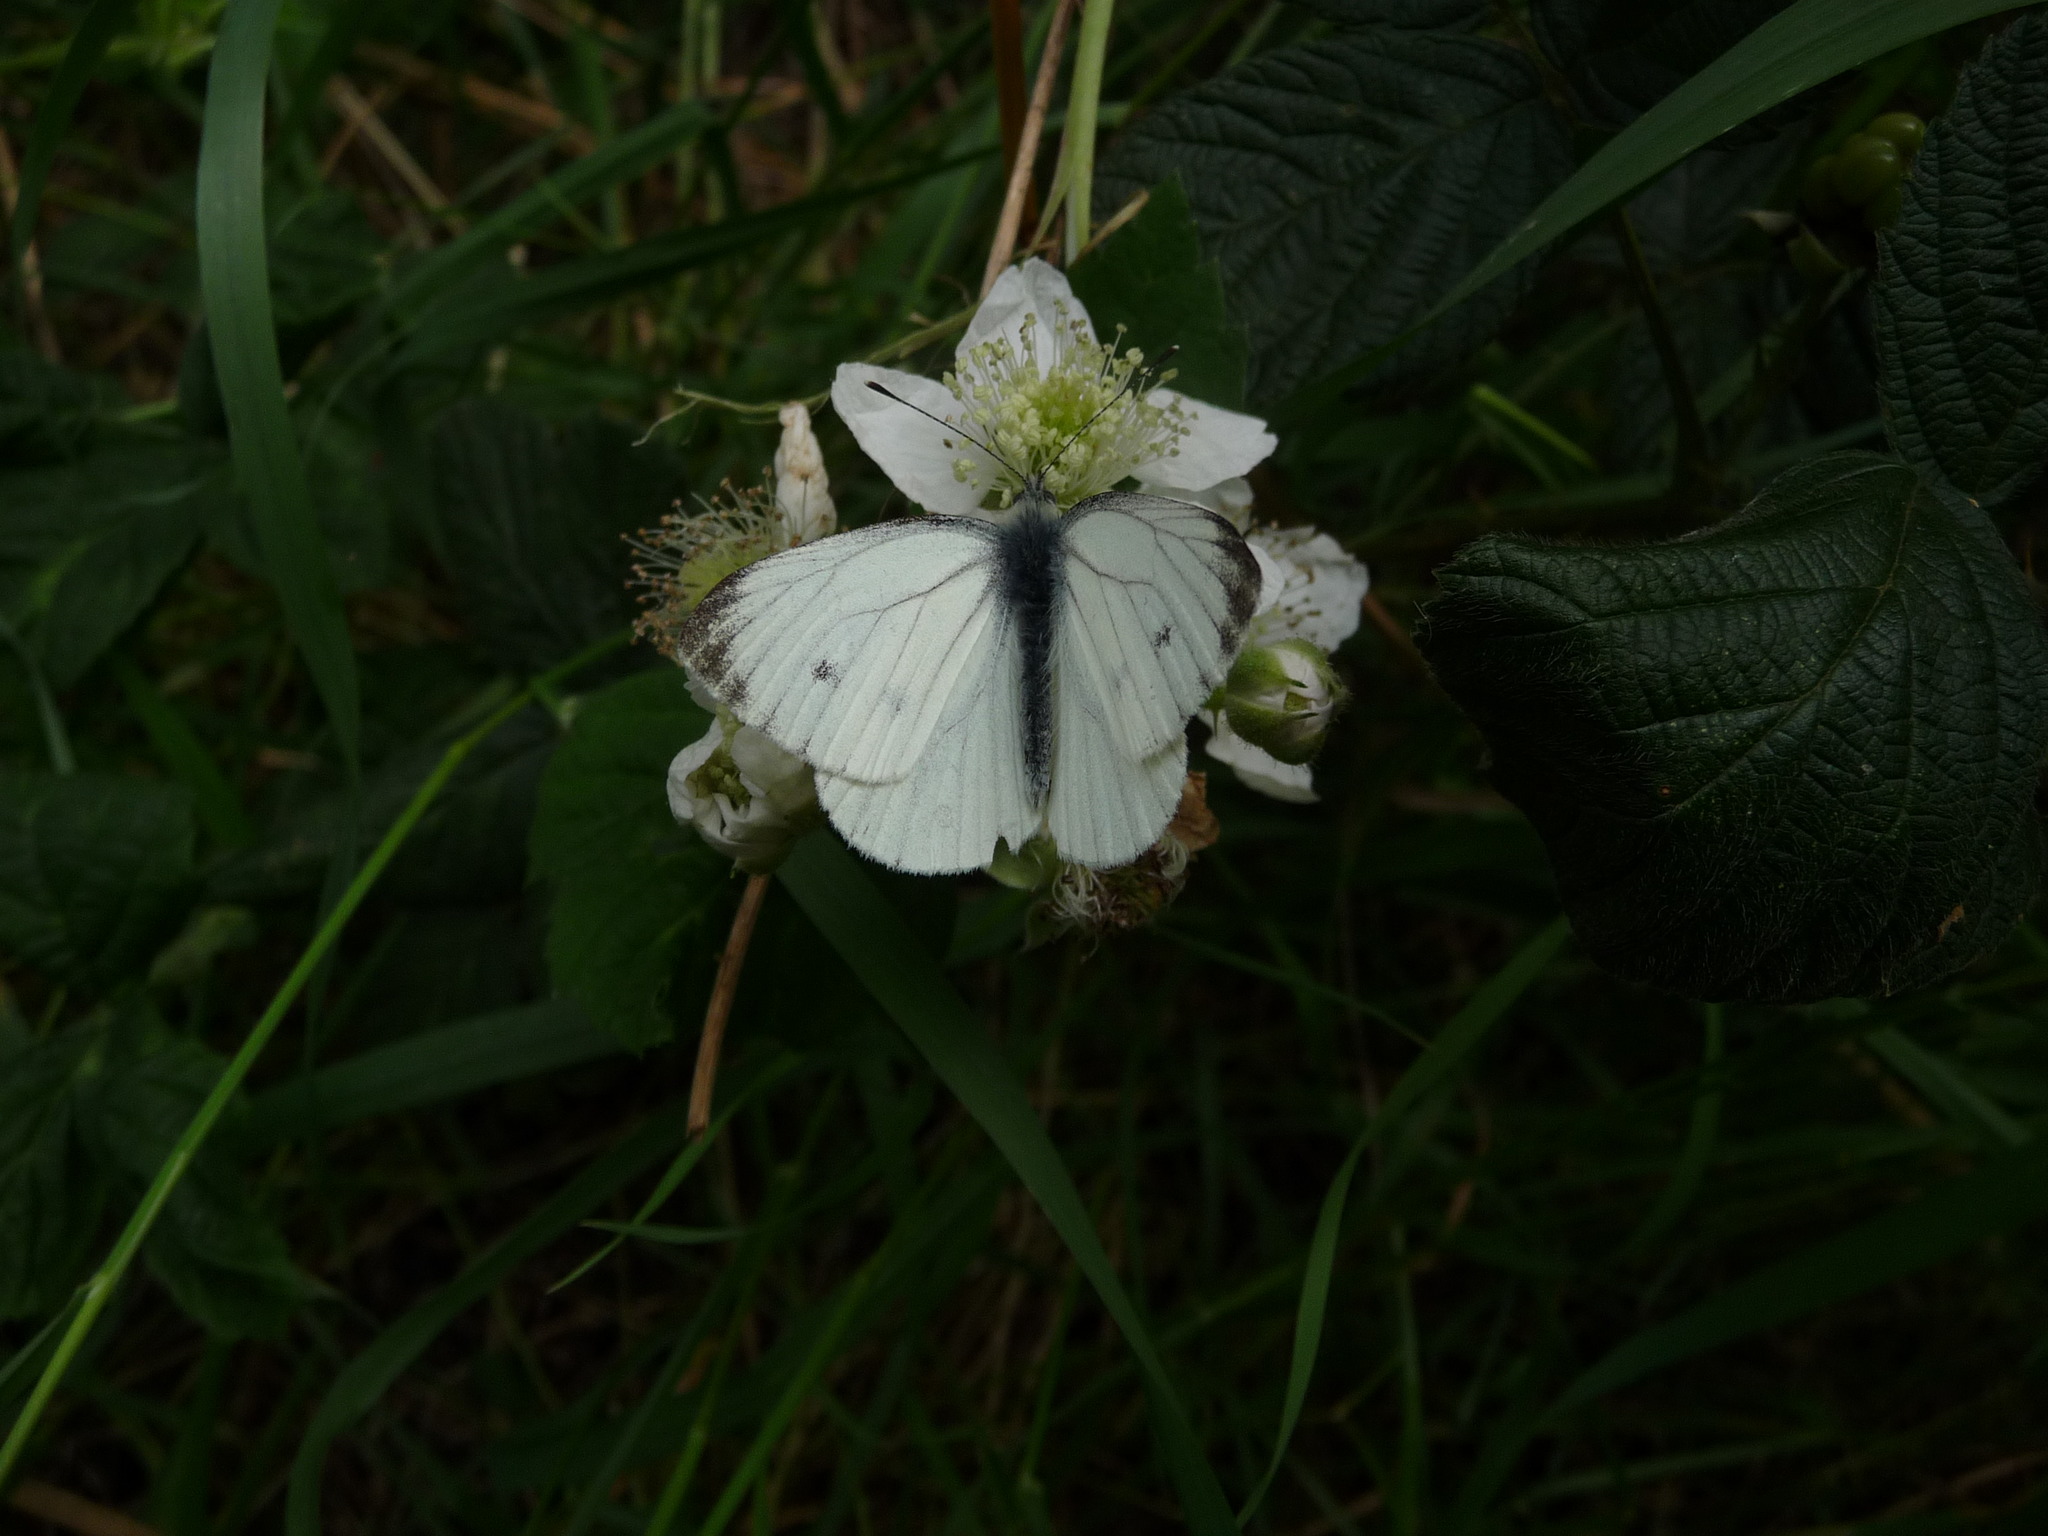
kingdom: Animalia
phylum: Arthropoda
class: Insecta
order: Lepidoptera
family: Pieridae
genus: Pieris
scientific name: Pieris napi
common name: Green-veined white
